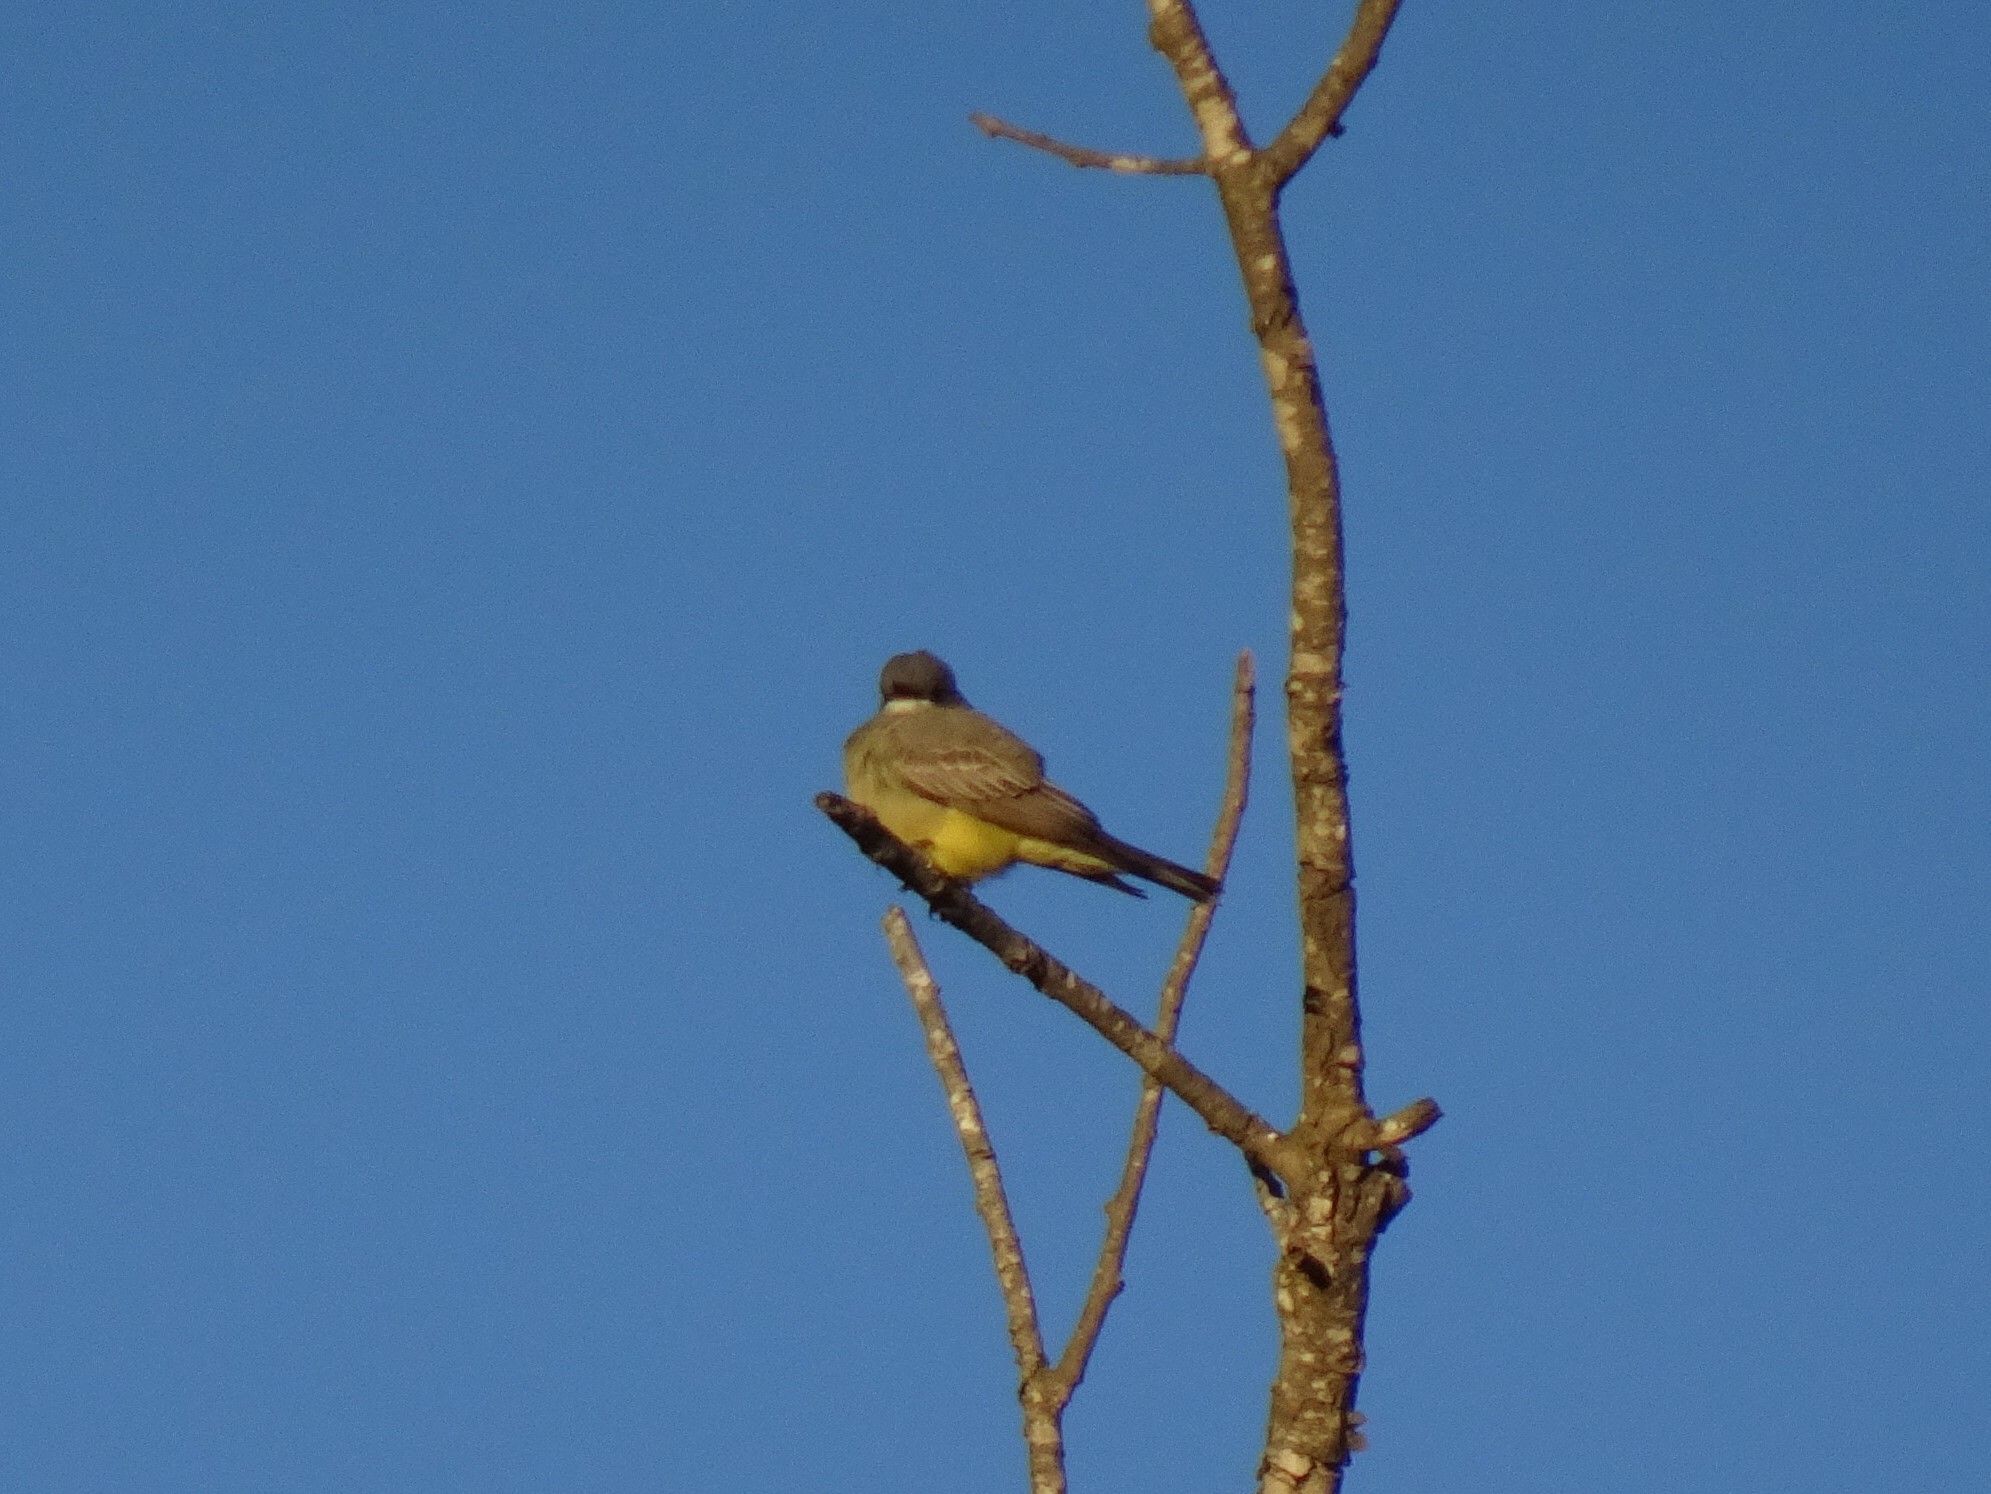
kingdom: Animalia
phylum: Chordata
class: Aves
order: Passeriformes
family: Tyrannidae
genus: Tyrannus
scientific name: Tyrannus vociferans
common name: Cassin's kingbird
